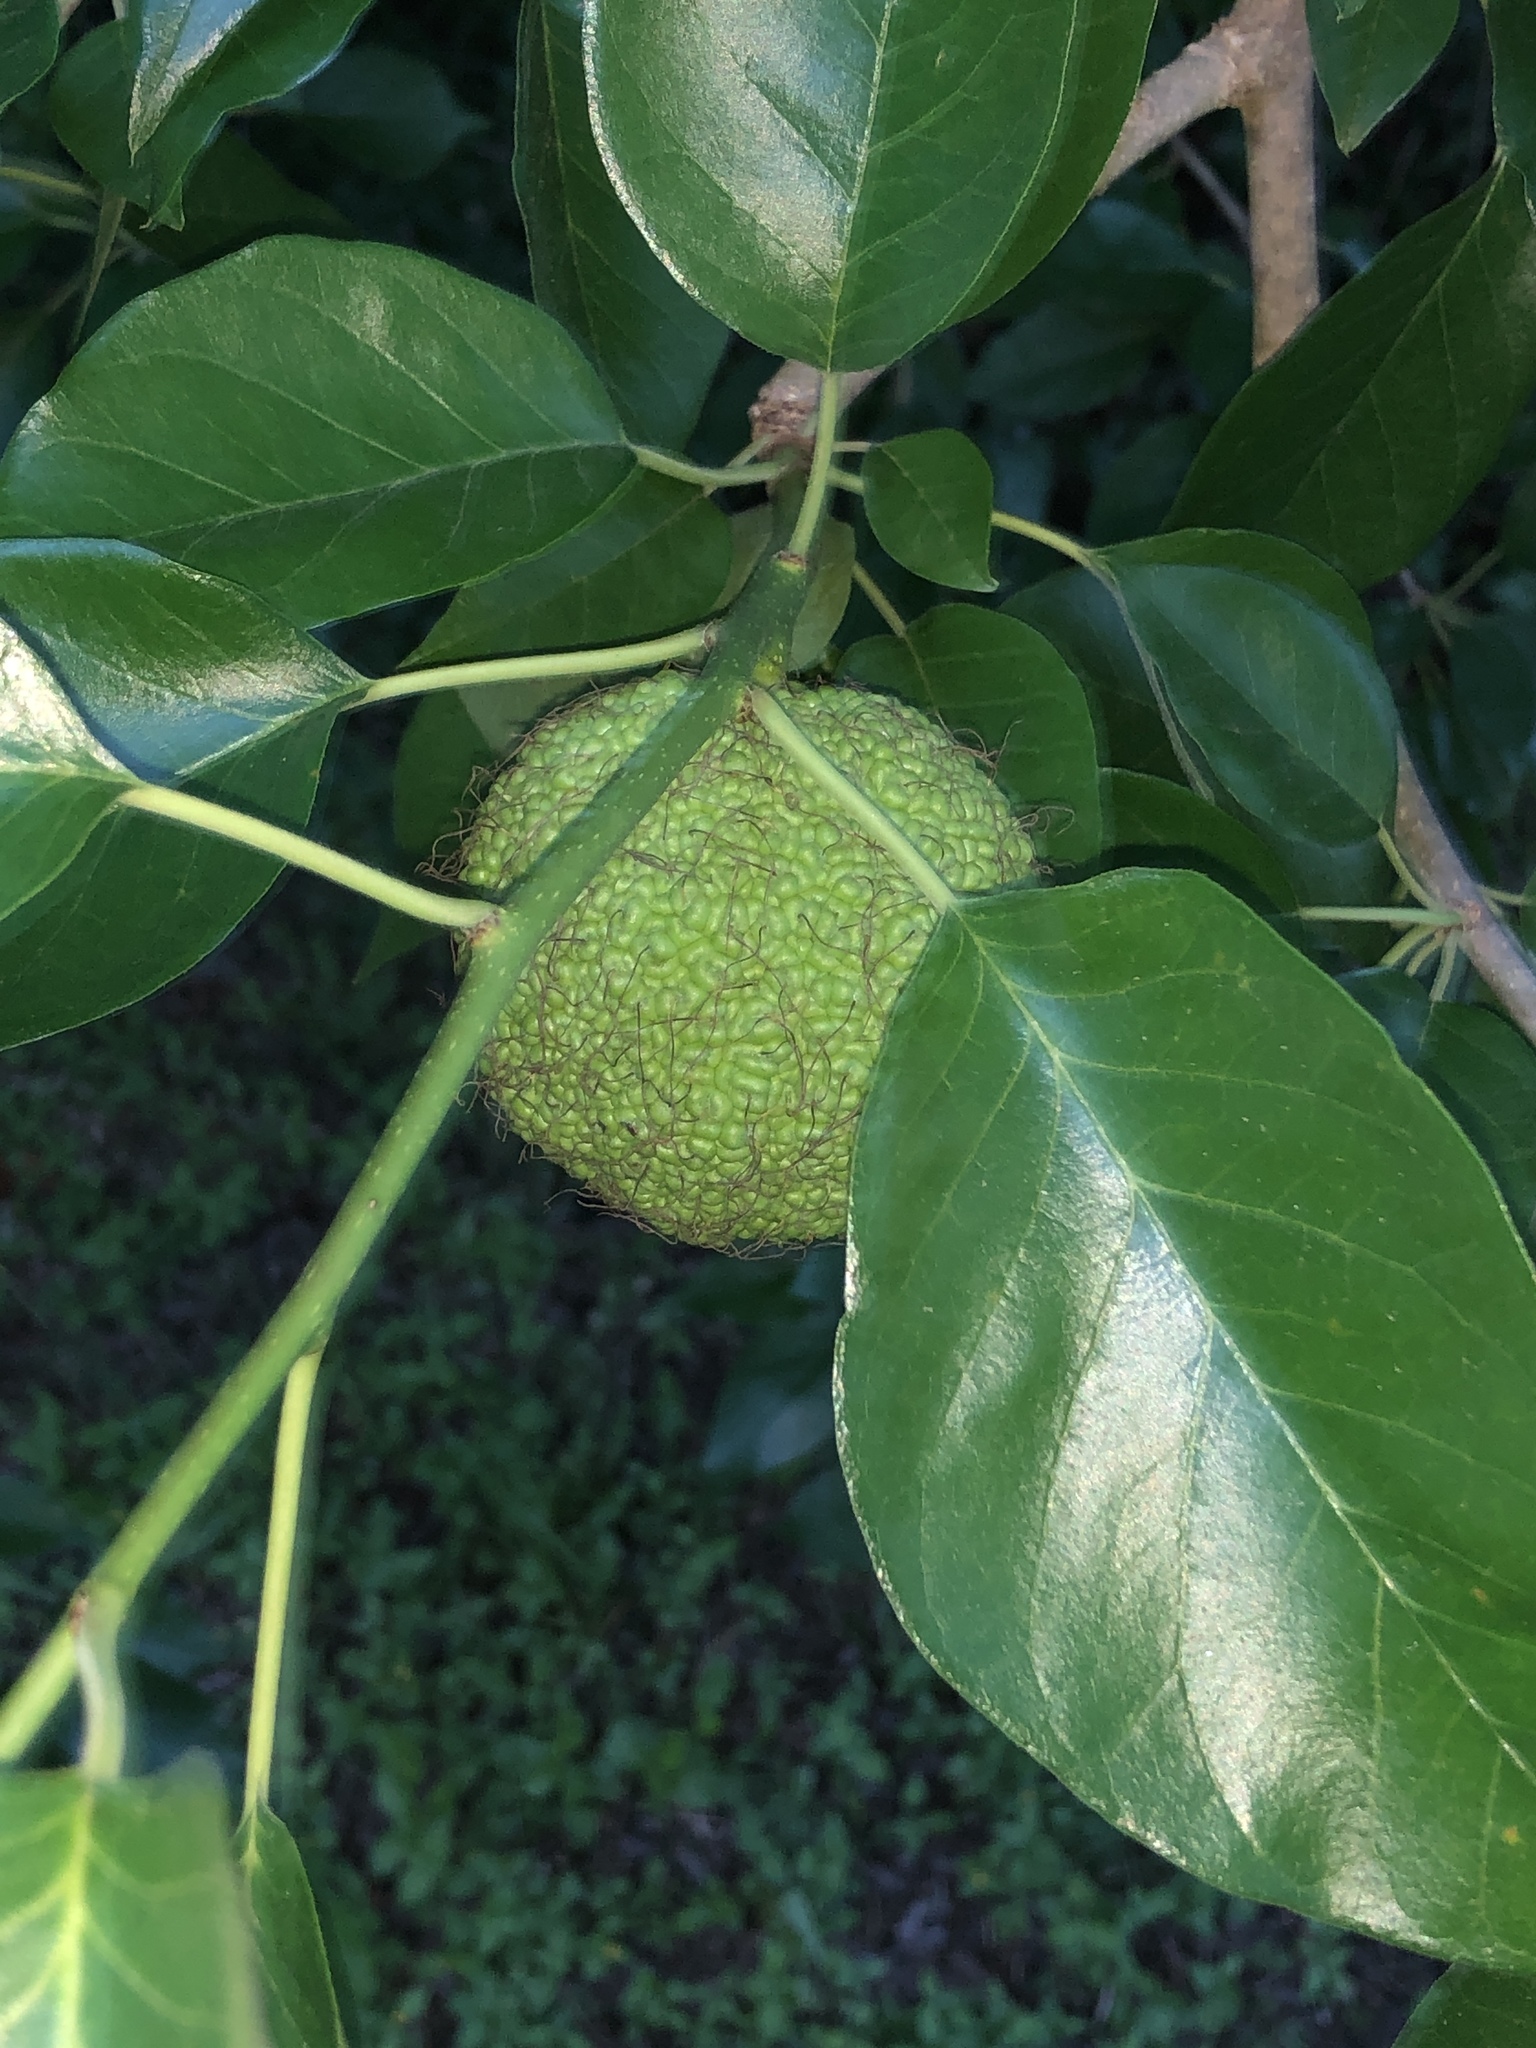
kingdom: Plantae
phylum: Tracheophyta
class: Magnoliopsida
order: Rosales
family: Moraceae
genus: Maclura
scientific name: Maclura pomifera
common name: Osage-orange
